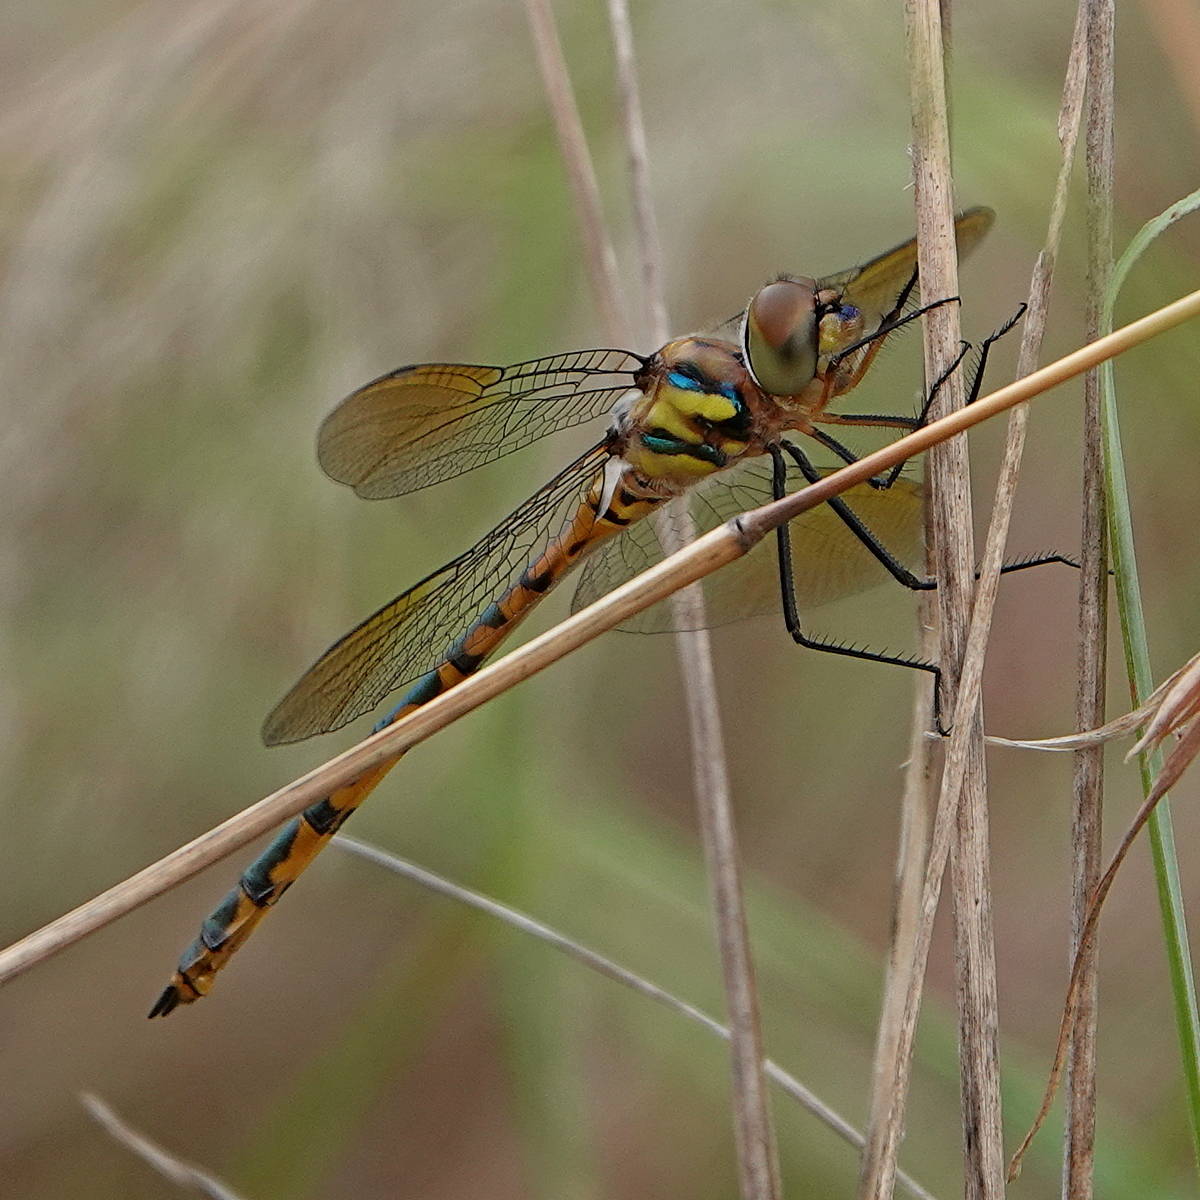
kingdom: Animalia
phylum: Arthropoda
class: Insecta
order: Odonata
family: Corduliidae
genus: Hemicordulia
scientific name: Hemicordulia australiae
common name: Sentry dragonfly
